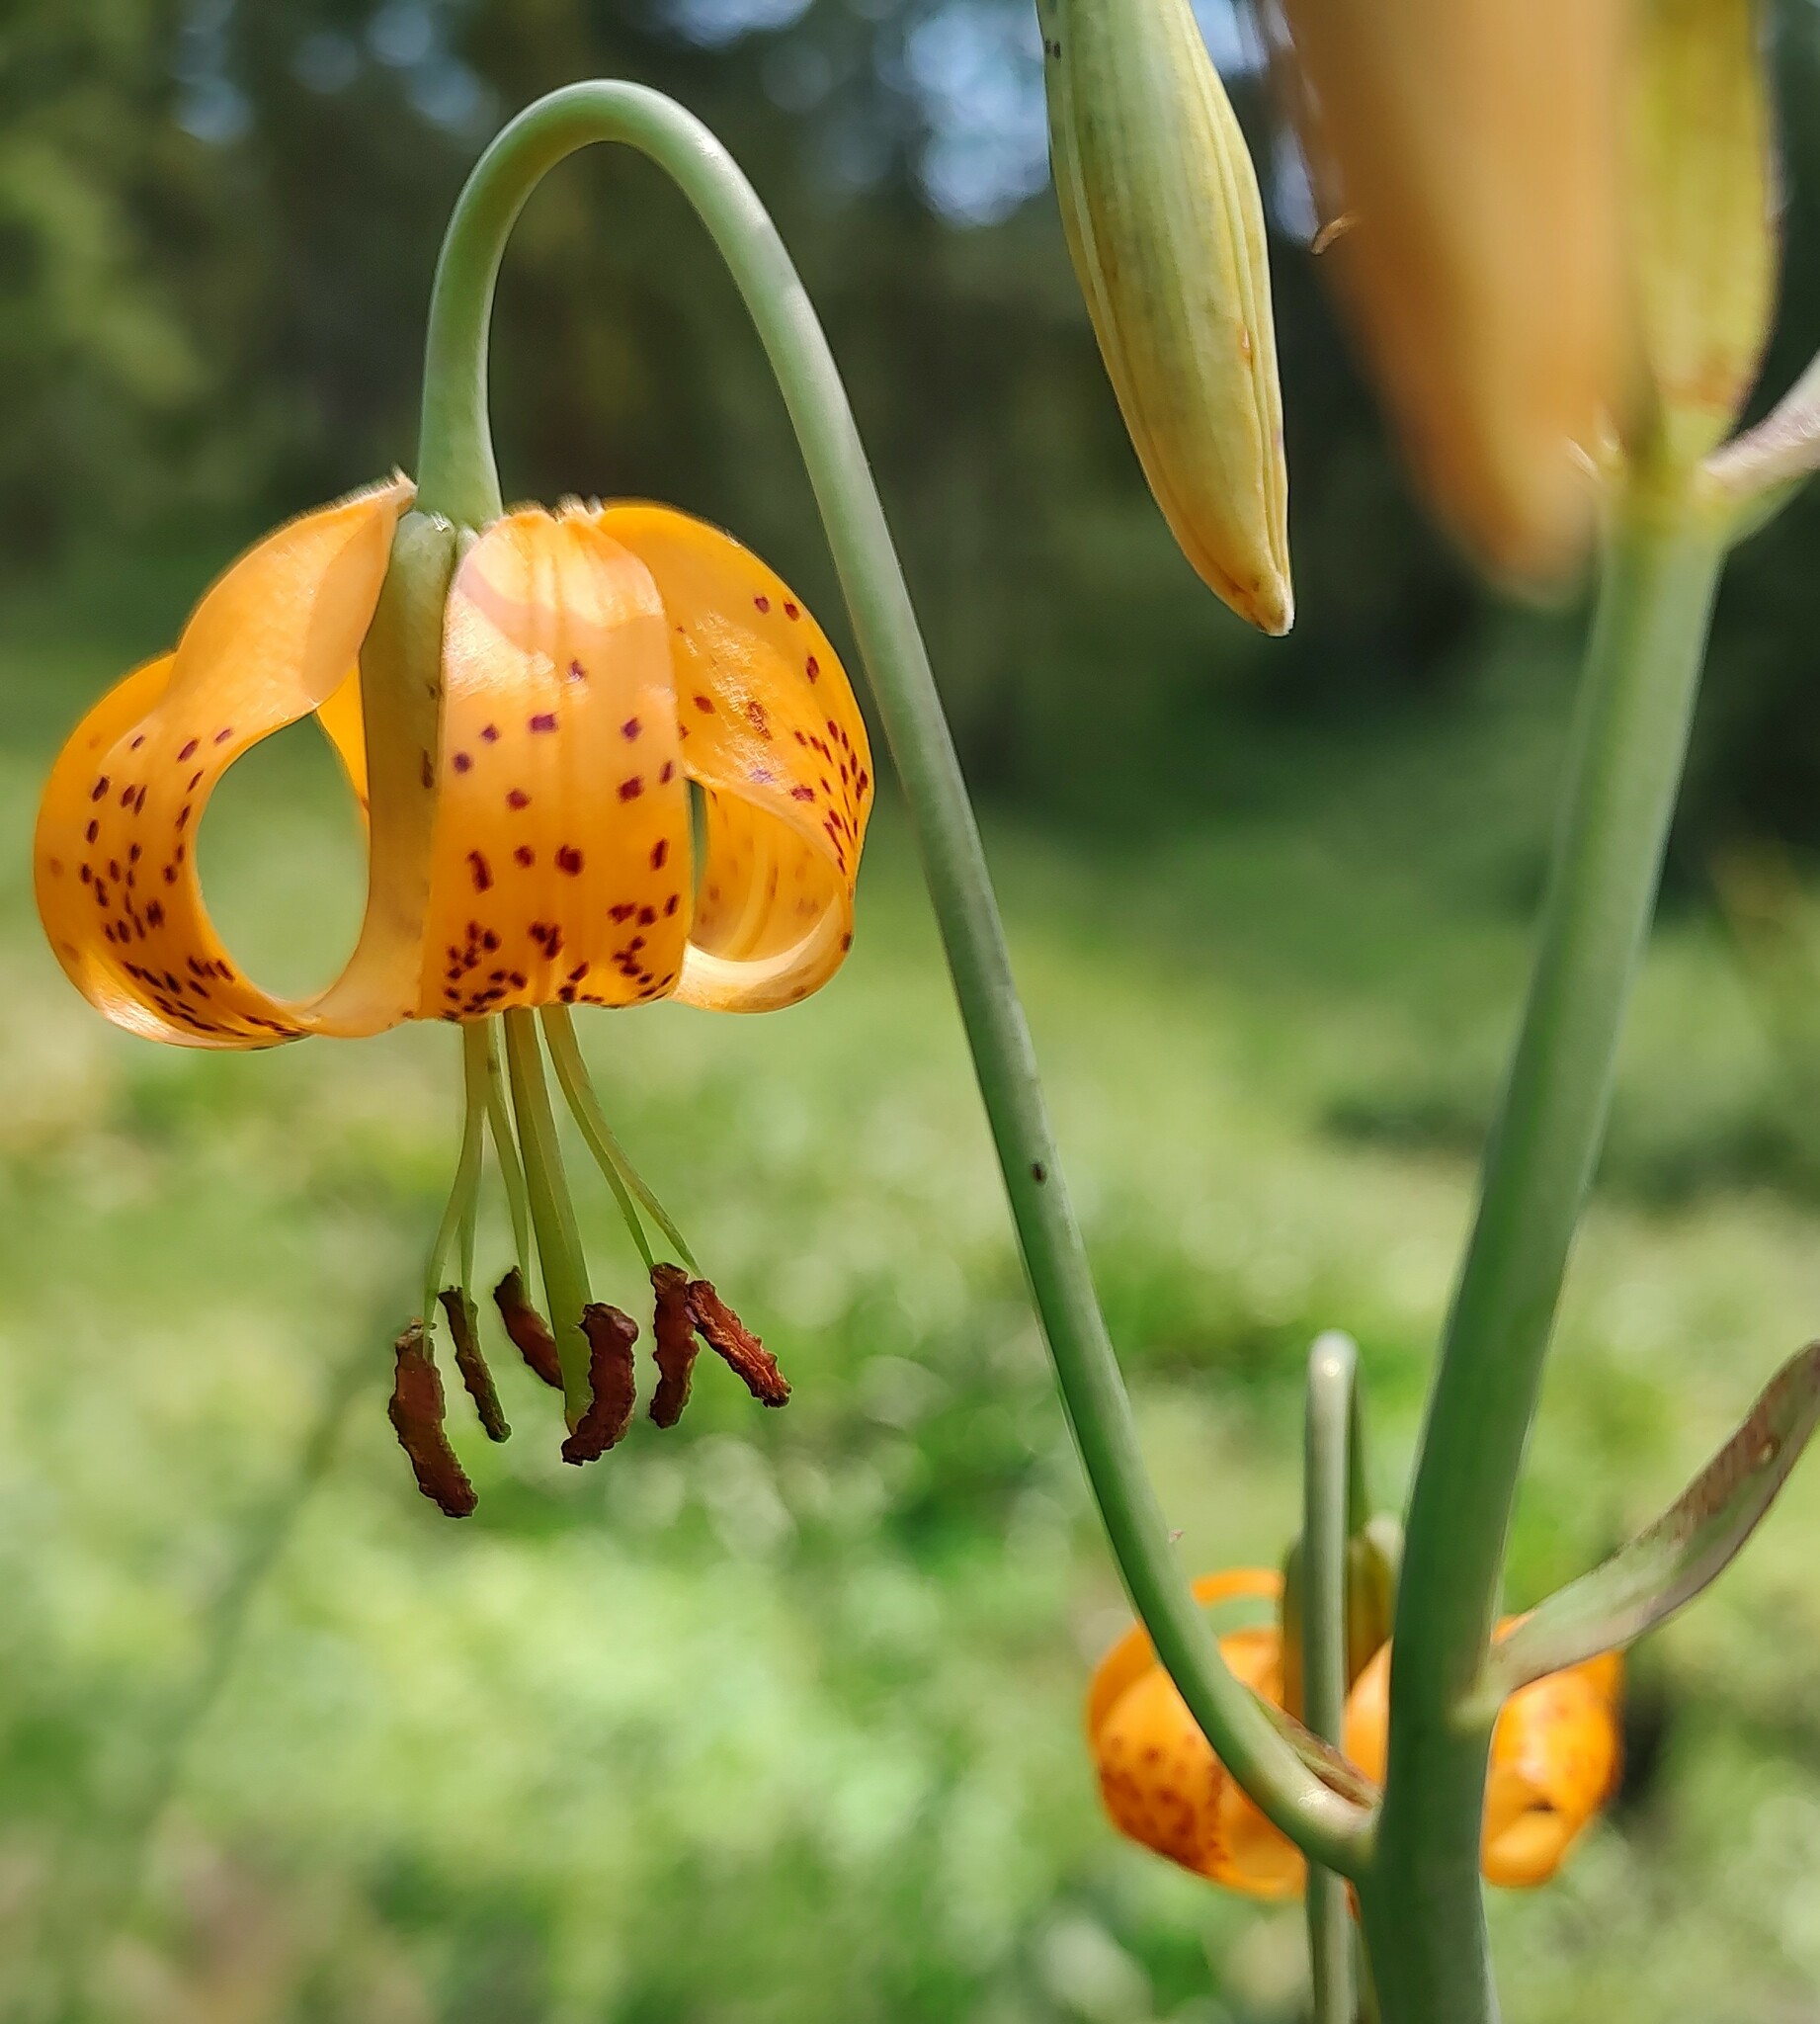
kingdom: Plantae
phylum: Tracheophyta
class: Liliopsida
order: Liliales
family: Liliaceae
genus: Lilium
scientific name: Lilium columbianum
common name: Columbia lily
